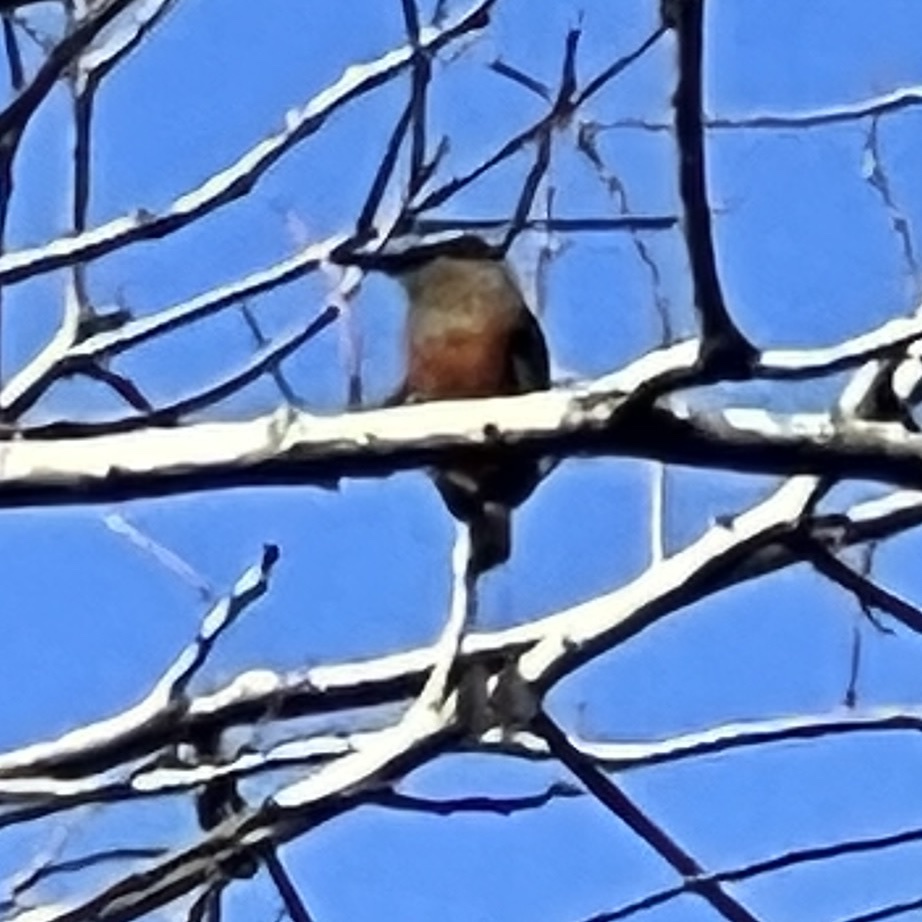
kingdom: Animalia
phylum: Chordata
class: Aves
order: Coraciiformes
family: Momotidae
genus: Eumomota
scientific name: Eumomota superciliosa
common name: Turquoise-browed motmot
